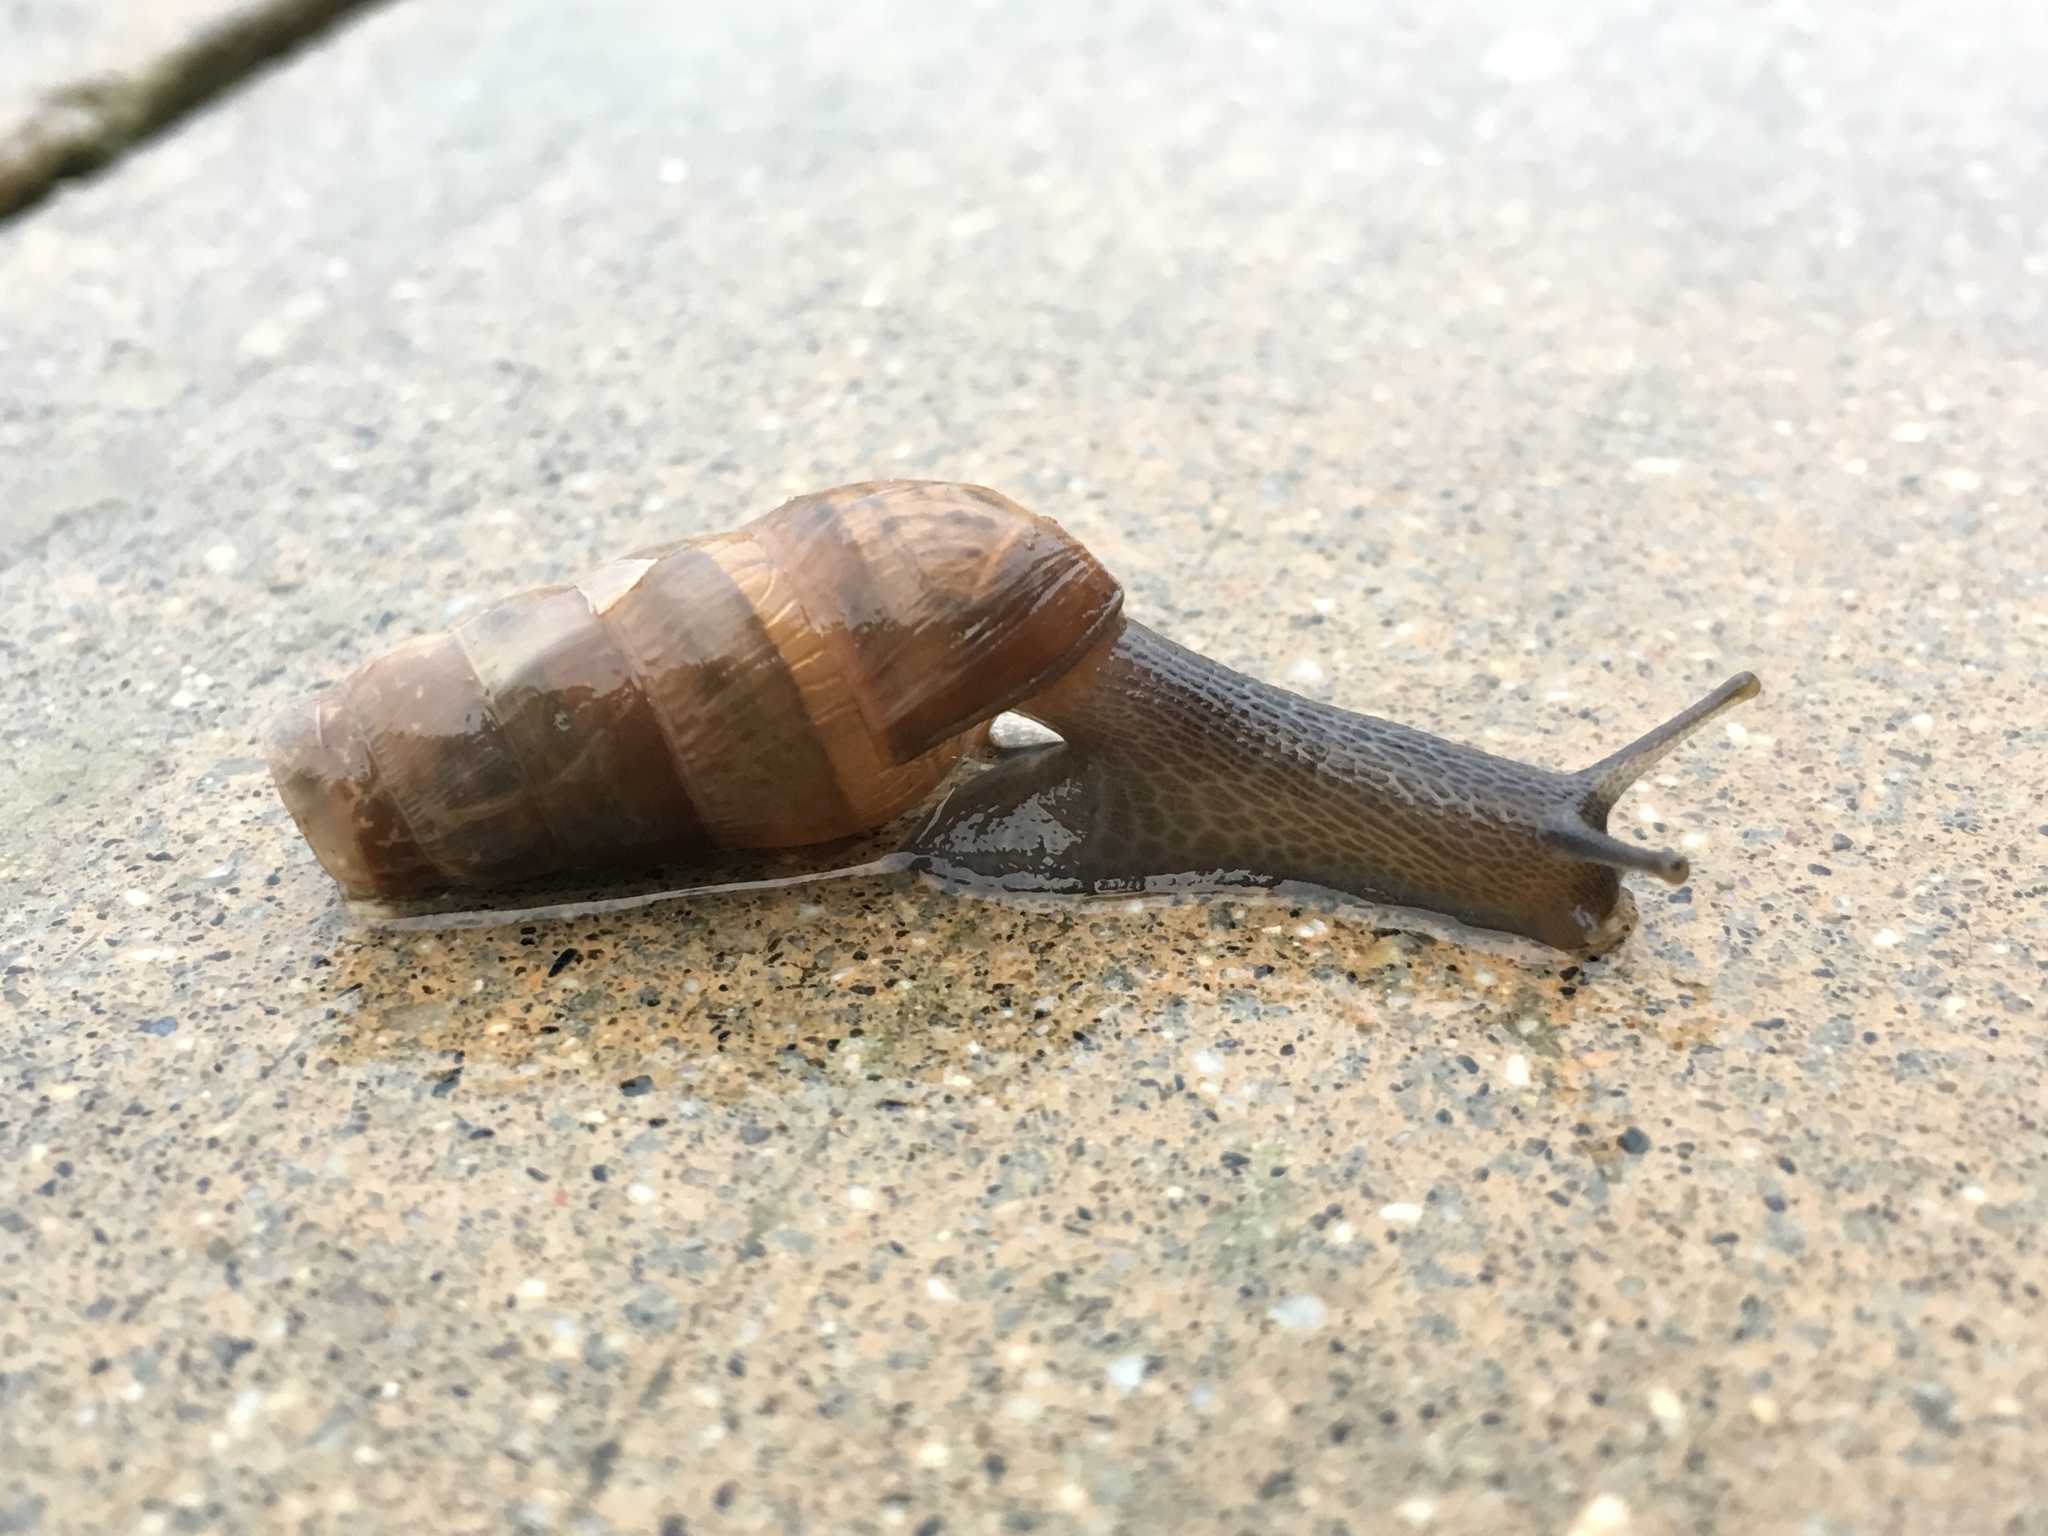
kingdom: Animalia
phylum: Mollusca
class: Gastropoda
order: Stylommatophora
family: Achatinidae
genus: Rumina
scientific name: Rumina decollata
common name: Decollate snail
